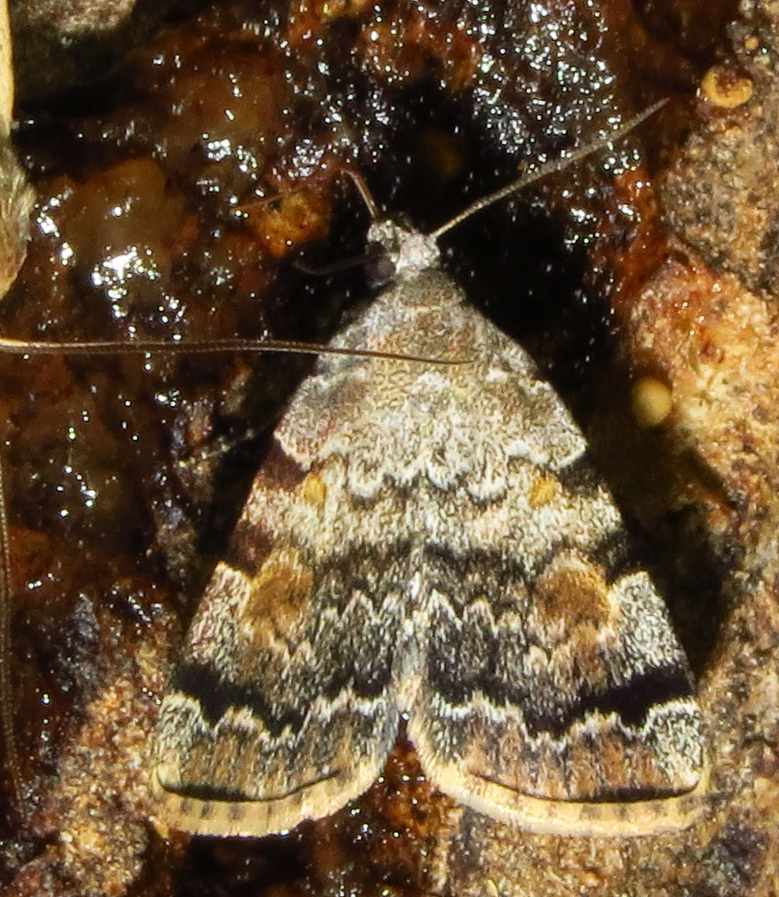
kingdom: Animalia
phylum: Arthropoda
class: Insecta
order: Lepidoptera
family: Erebidae
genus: Idia
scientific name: Idia americalis
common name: American idia moth
